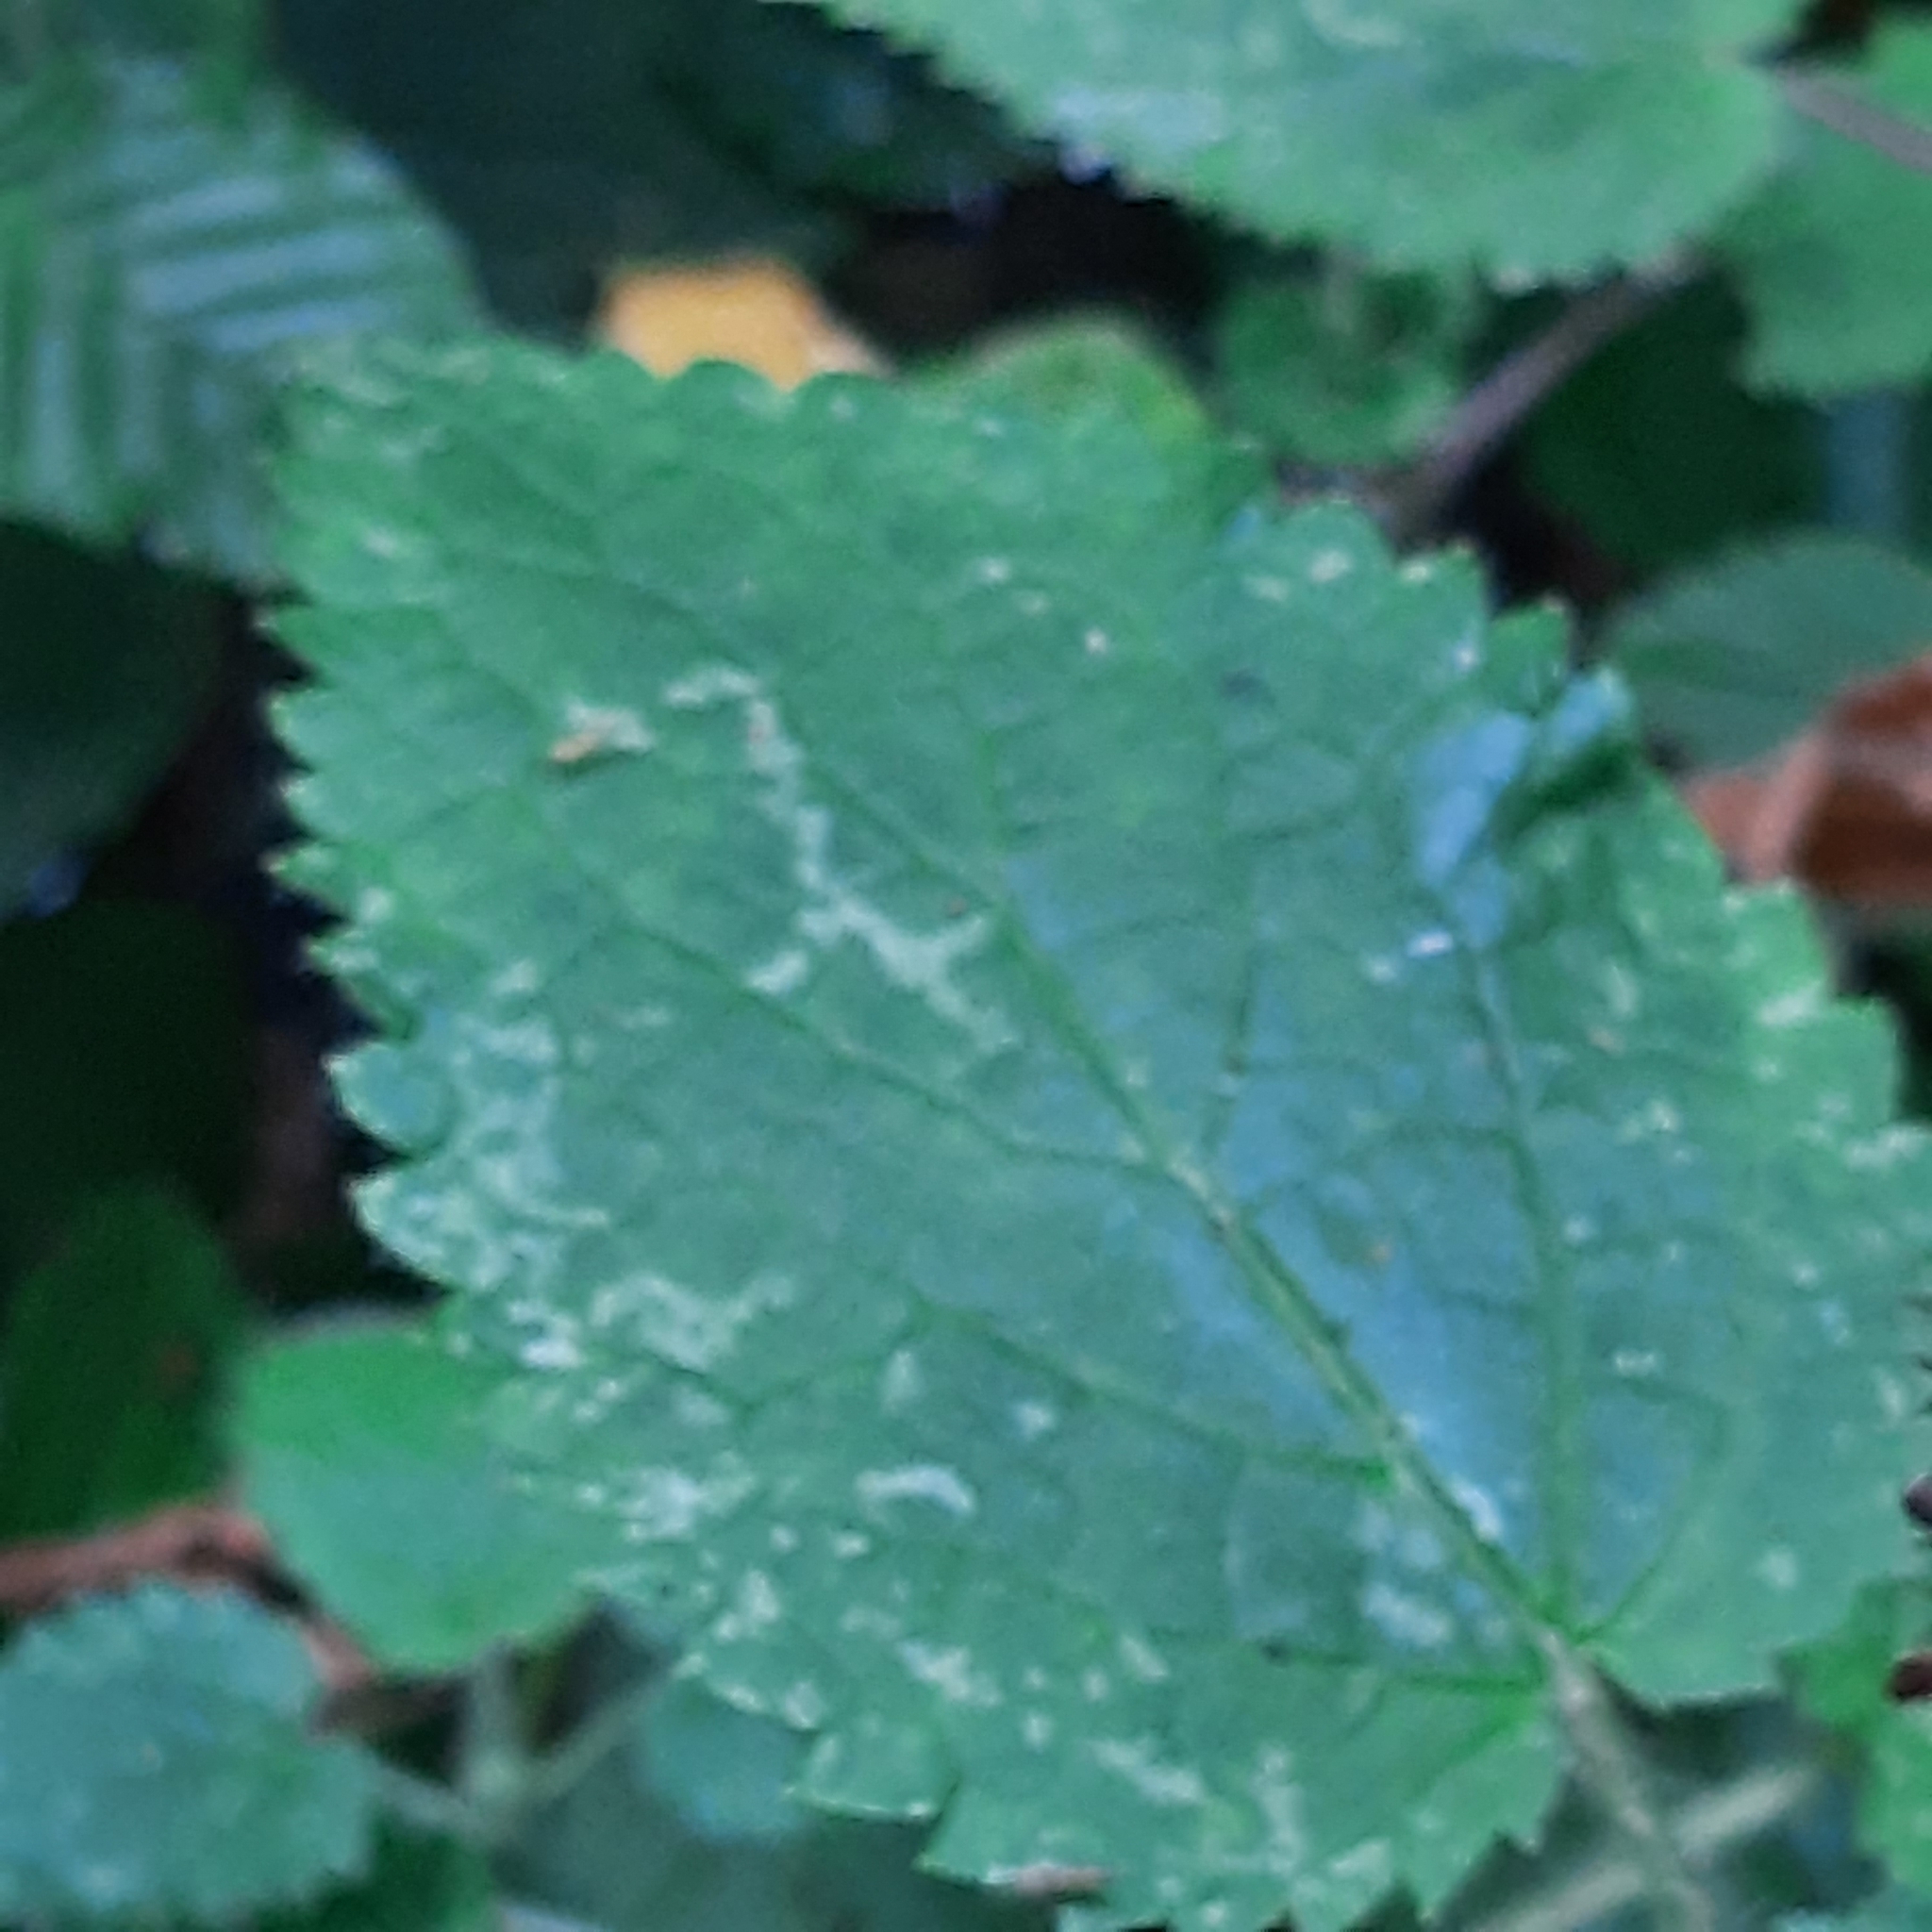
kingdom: Plantae
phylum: Tracheophyta
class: Magnoliopsida
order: Lamiales
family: Lamiaceae
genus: Stachys
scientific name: Stachys sylvatica
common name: Hedge woundwort
